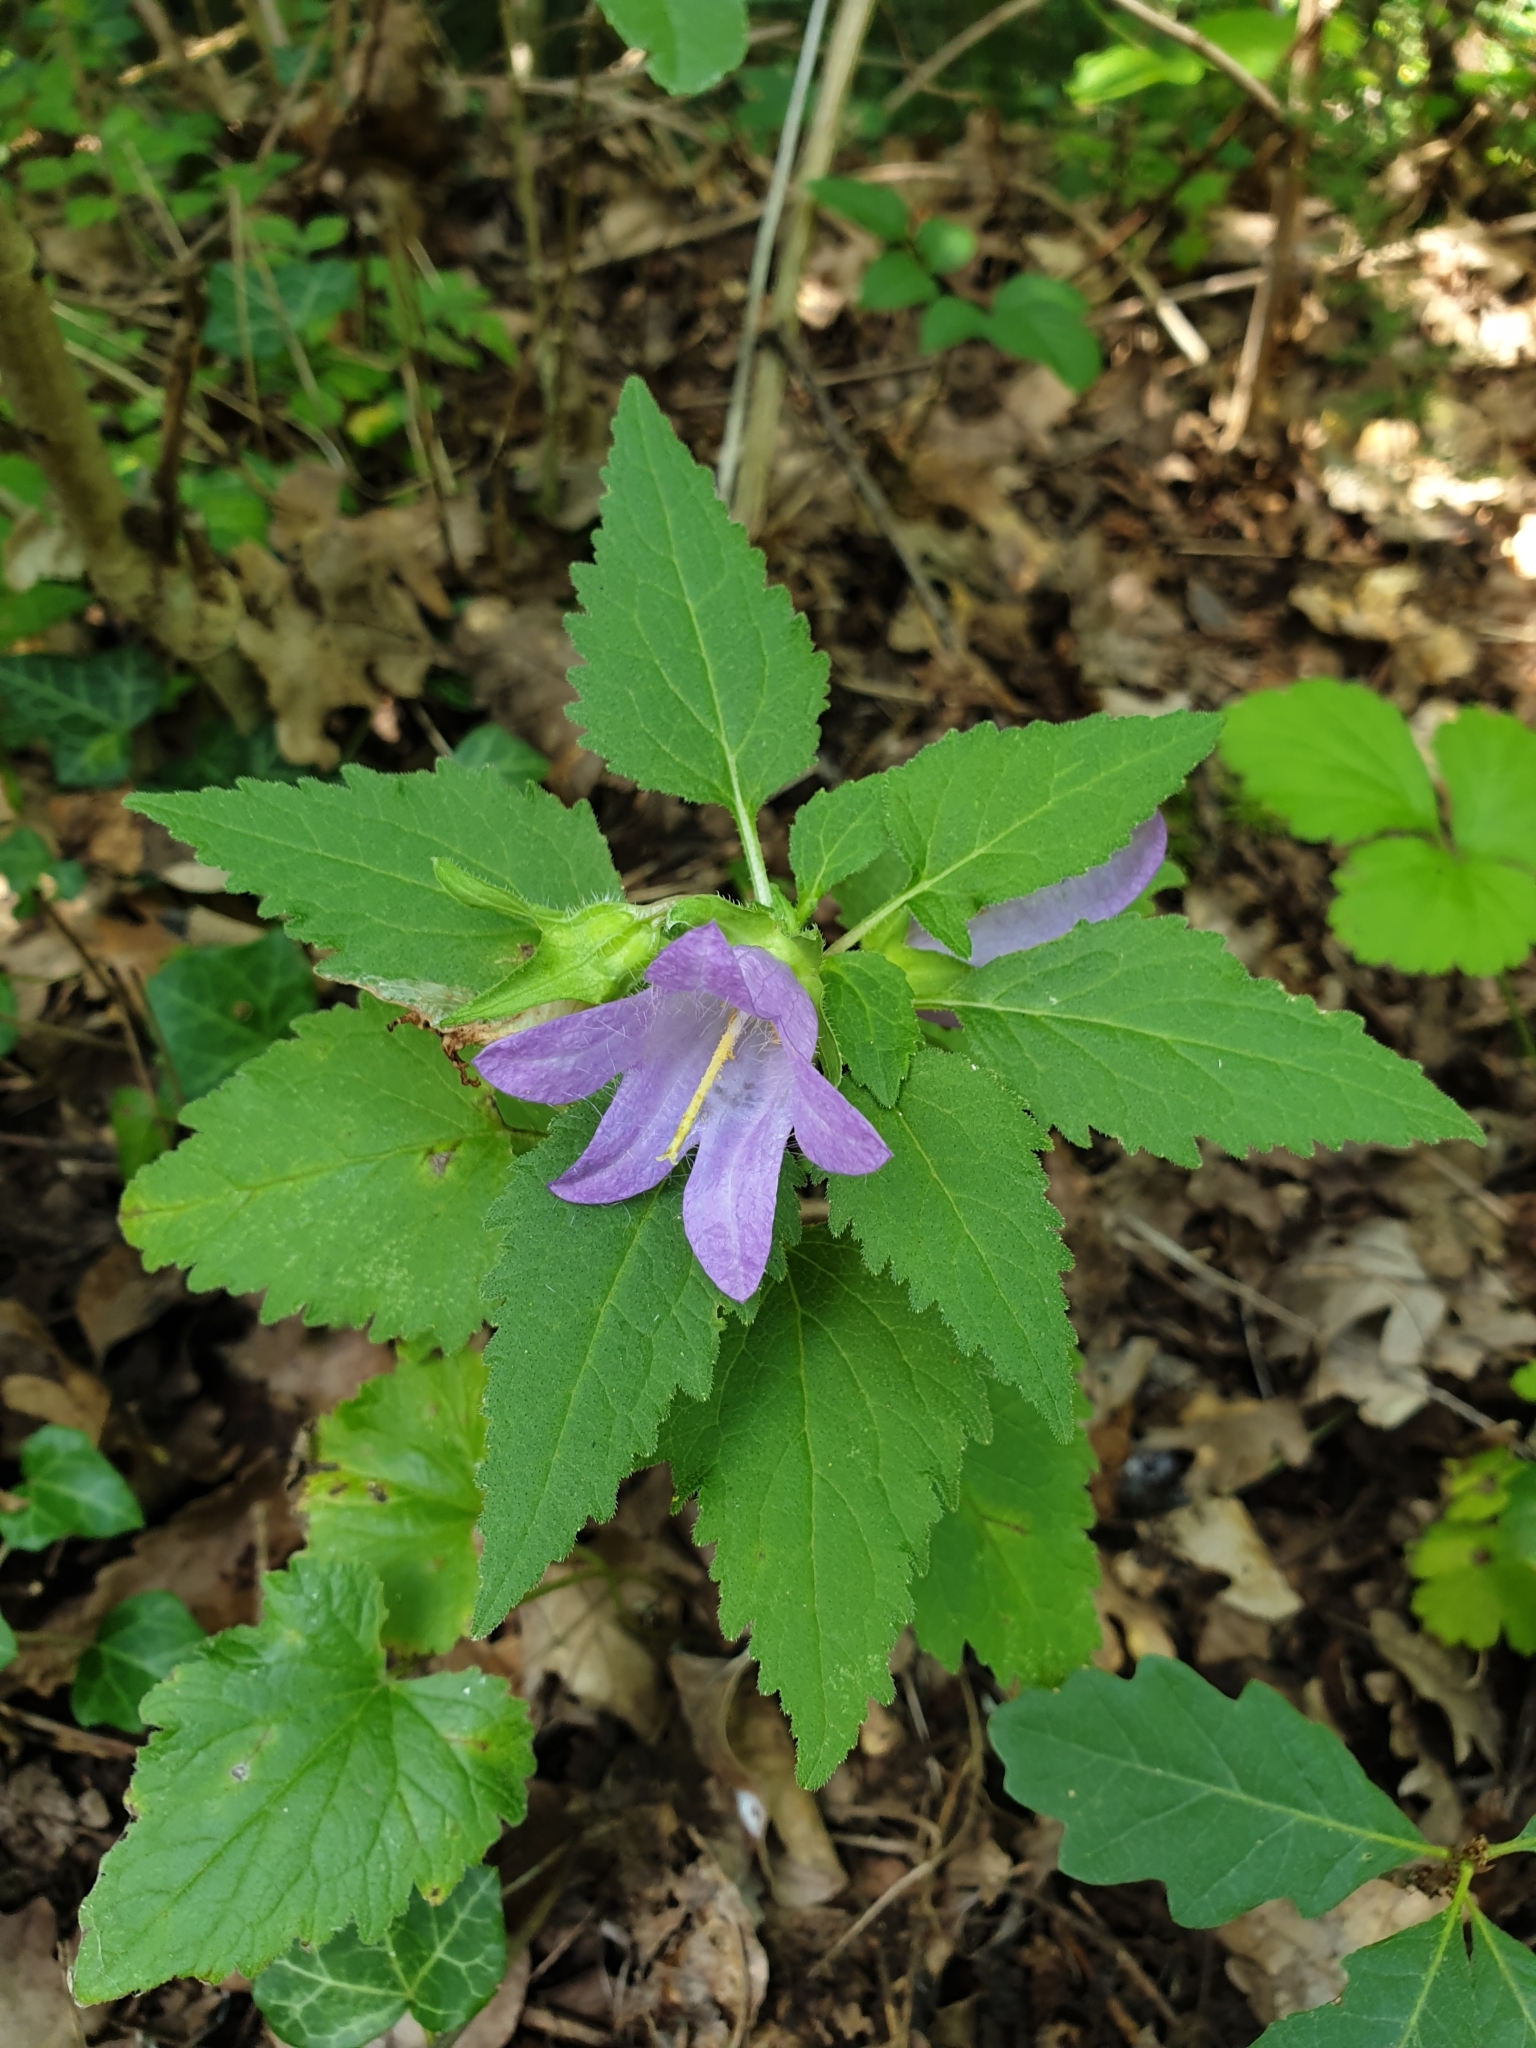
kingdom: Plantae
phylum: Tracheophyta
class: Magnoliopsida
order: Asterales
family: Campanulaceae
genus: Campanula
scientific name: Campanula trachelium
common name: Nettle-leaved bellflower
